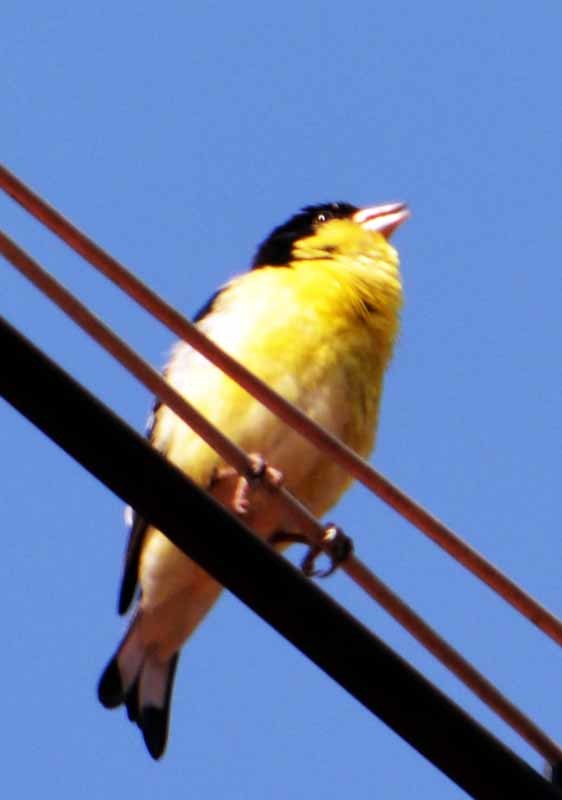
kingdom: Animalia
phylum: Chordata
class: Aves
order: Passeriformes
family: Fringillidae
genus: Spinus
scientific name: Spinus psaltria
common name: Lesser goldfinch
